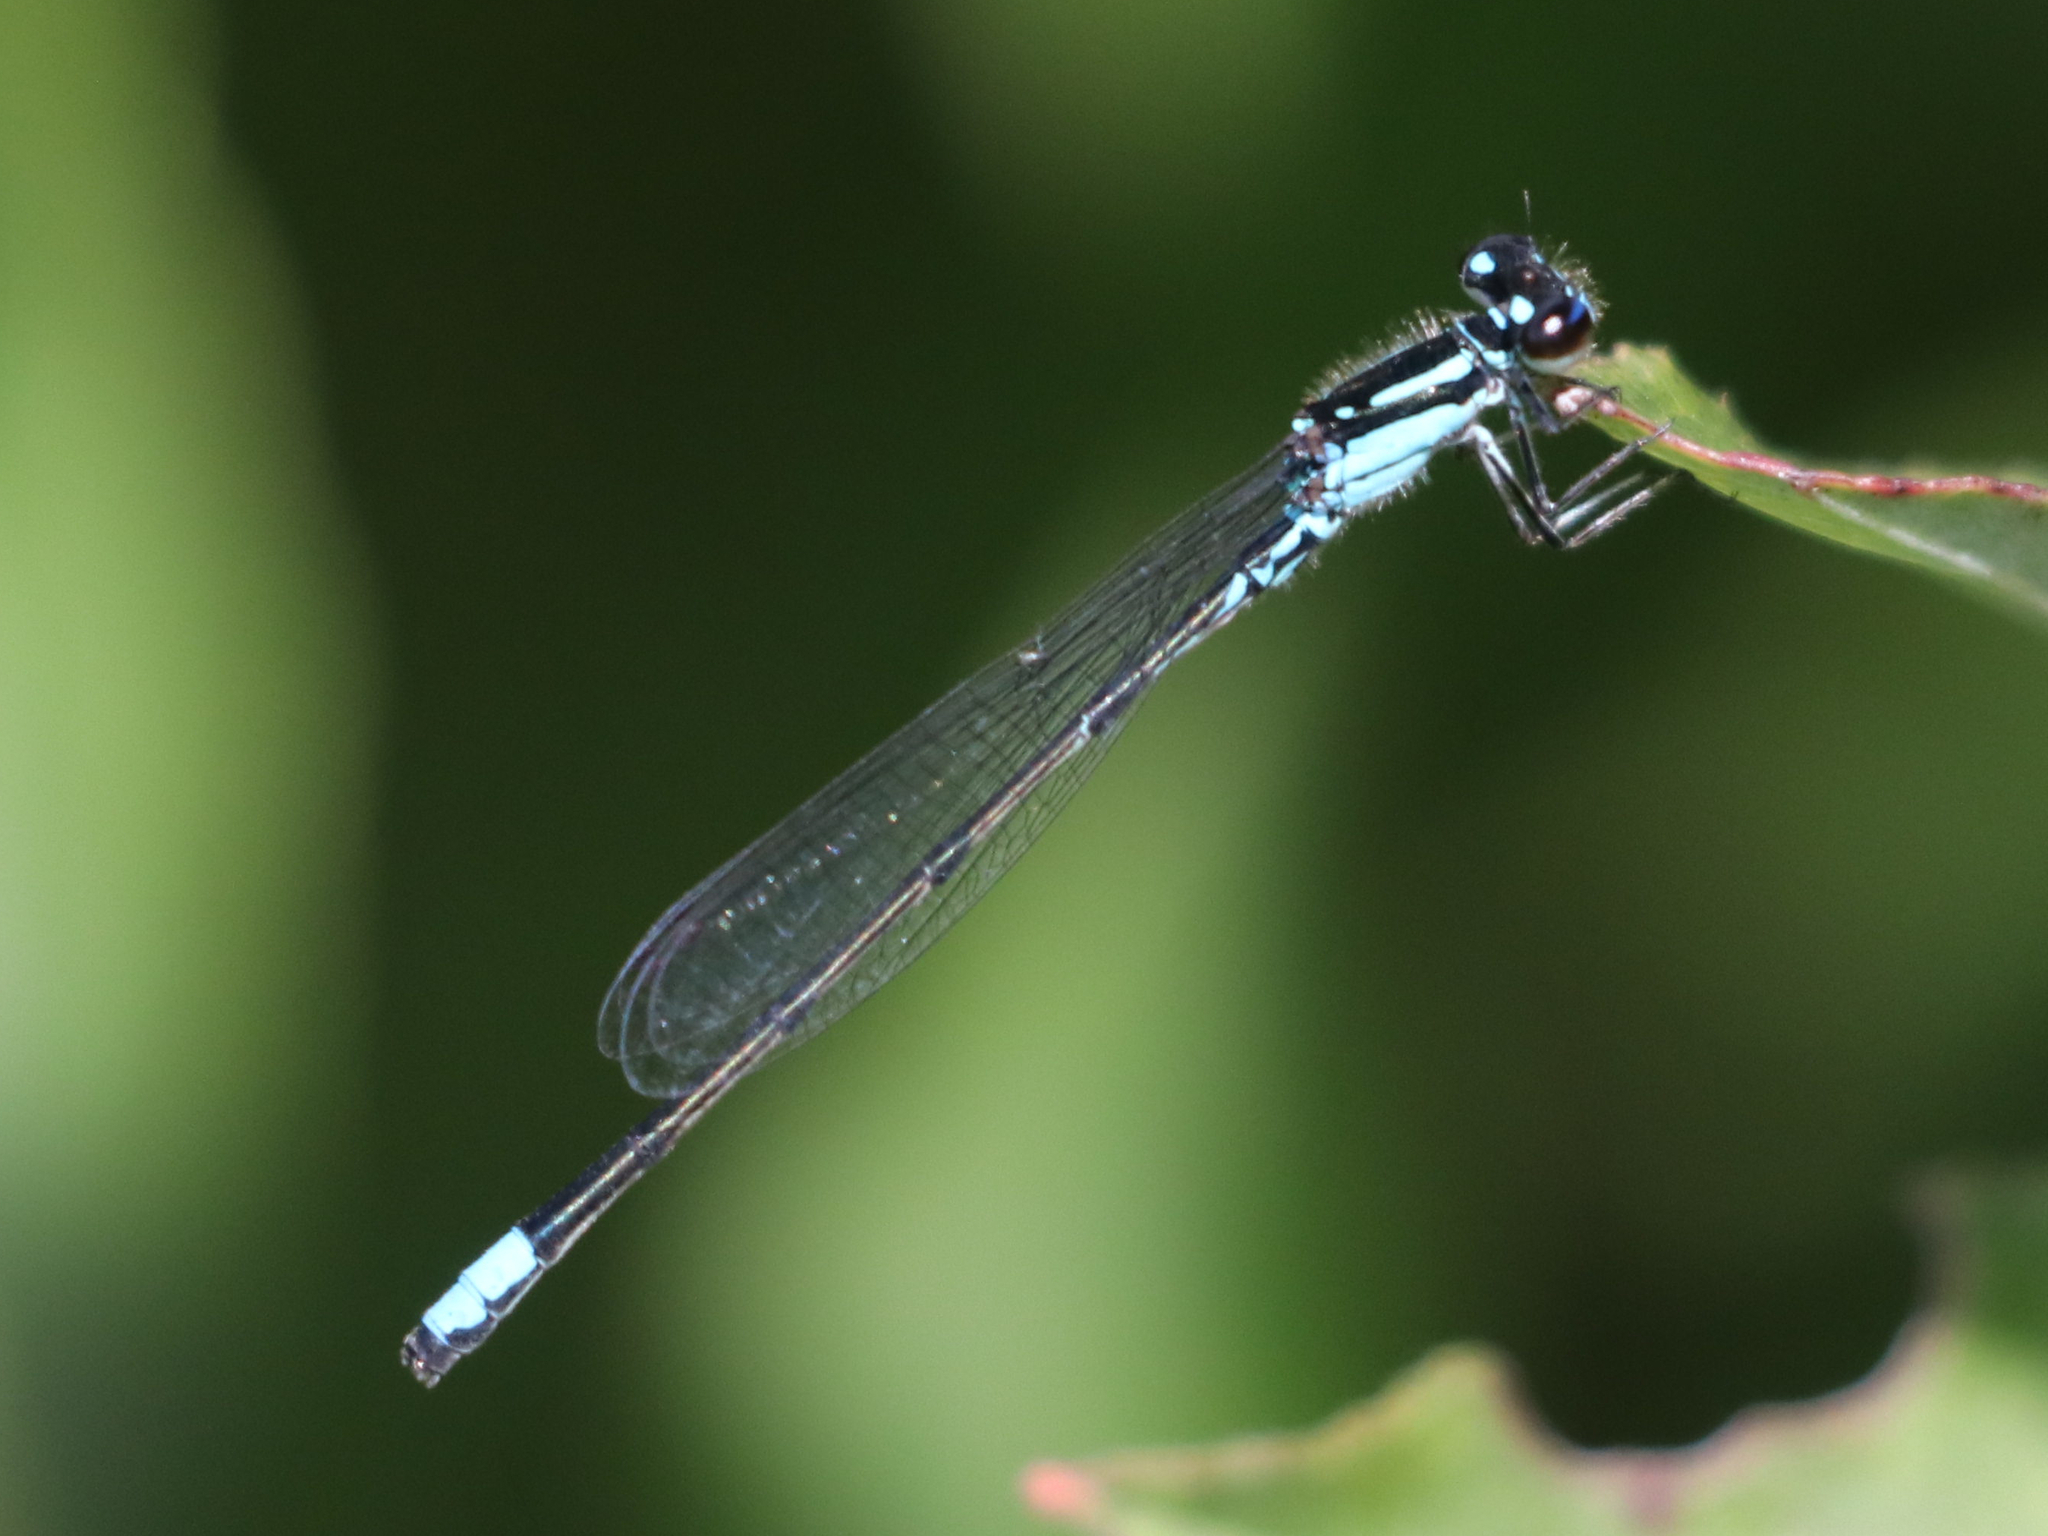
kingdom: Animalia
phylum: Arthropoda
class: Insecta
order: Odonata
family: Coenagrionidae
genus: Enallagma
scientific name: Enallagma geminatum
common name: Skimming bluet
